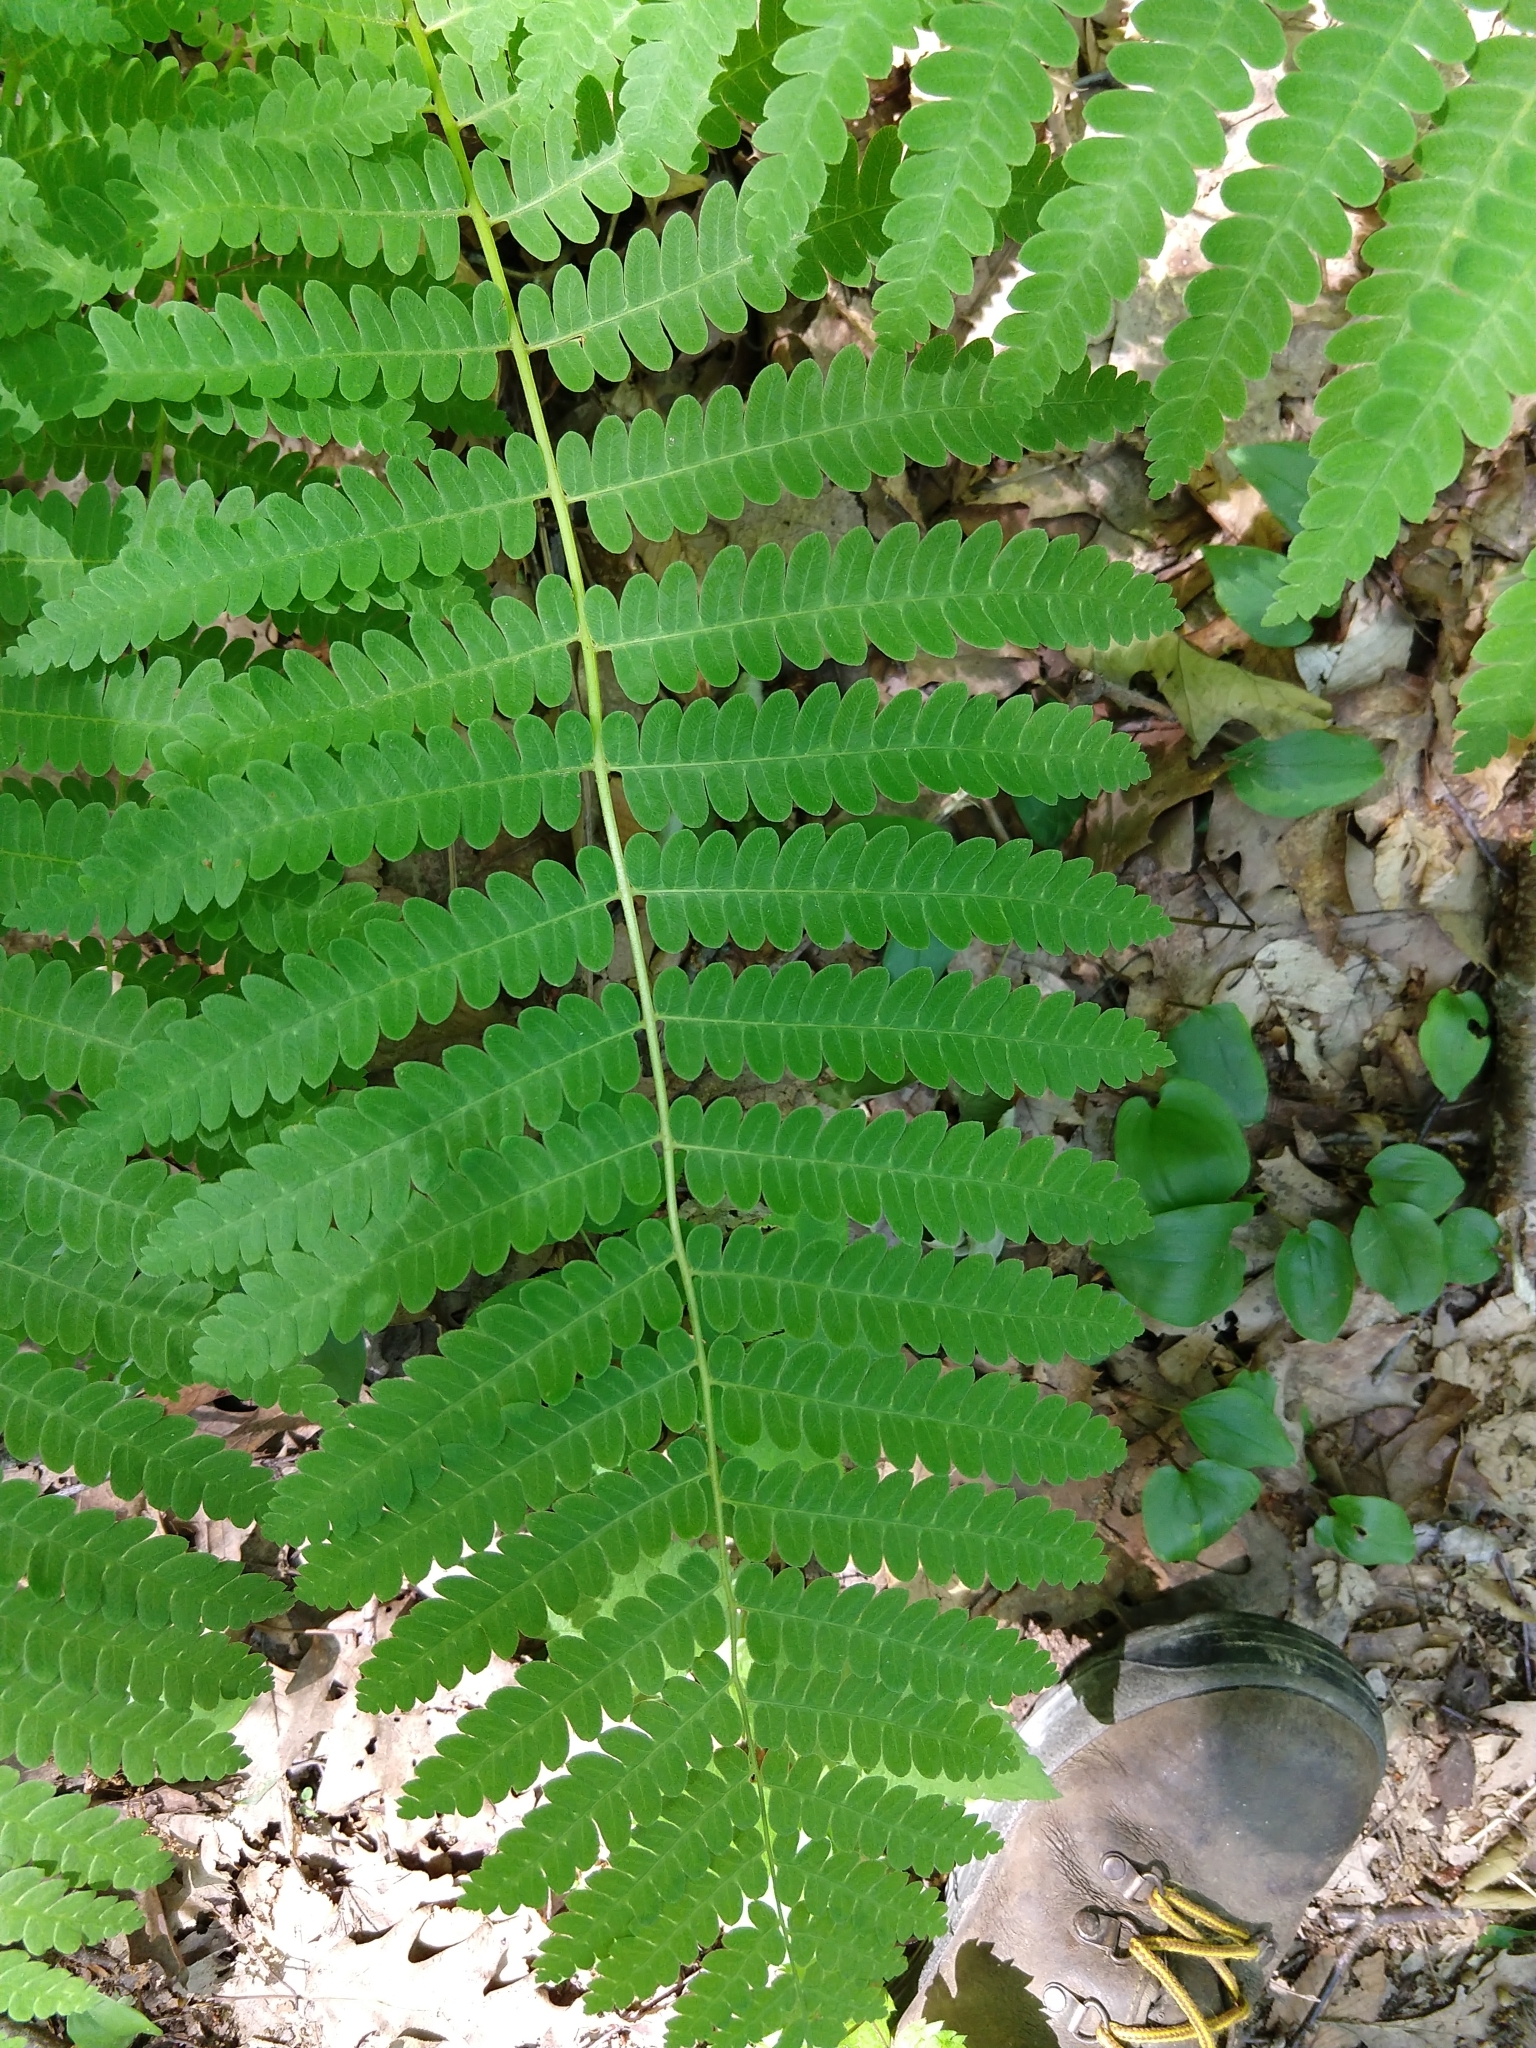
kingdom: Plantae
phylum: Tracheophyta
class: Polypodiopsida
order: Osmundales
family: Osmundaceae
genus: Claytosmunda
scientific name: Claytosmunda claytoniana
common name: Clayton's fern
